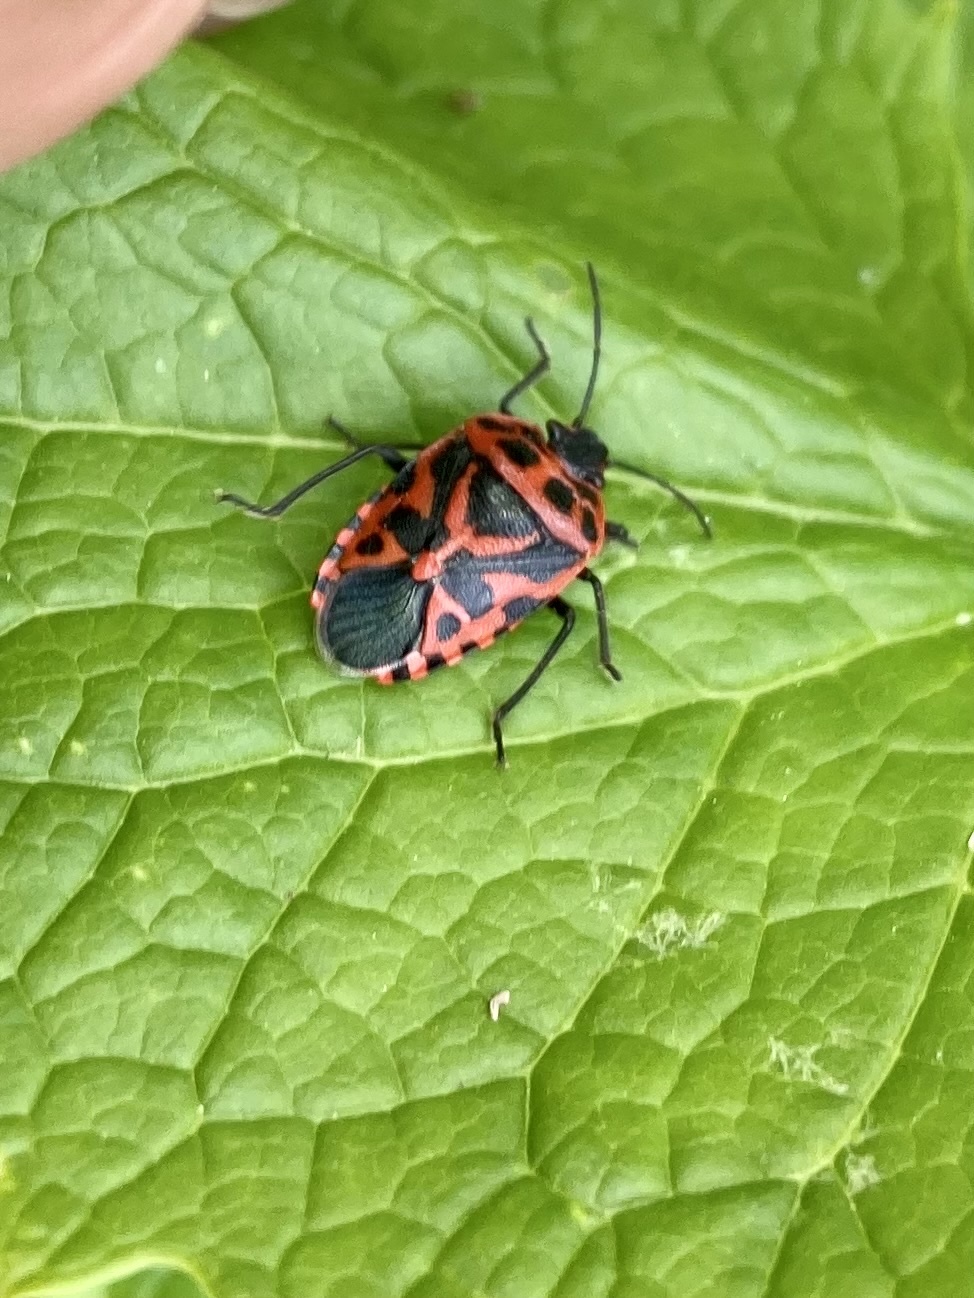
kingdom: Animalia
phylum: Arthropoda
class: Insecta
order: Hemiptera
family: Pentatomidae
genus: Eurydema
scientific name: Eurydema ventralis
